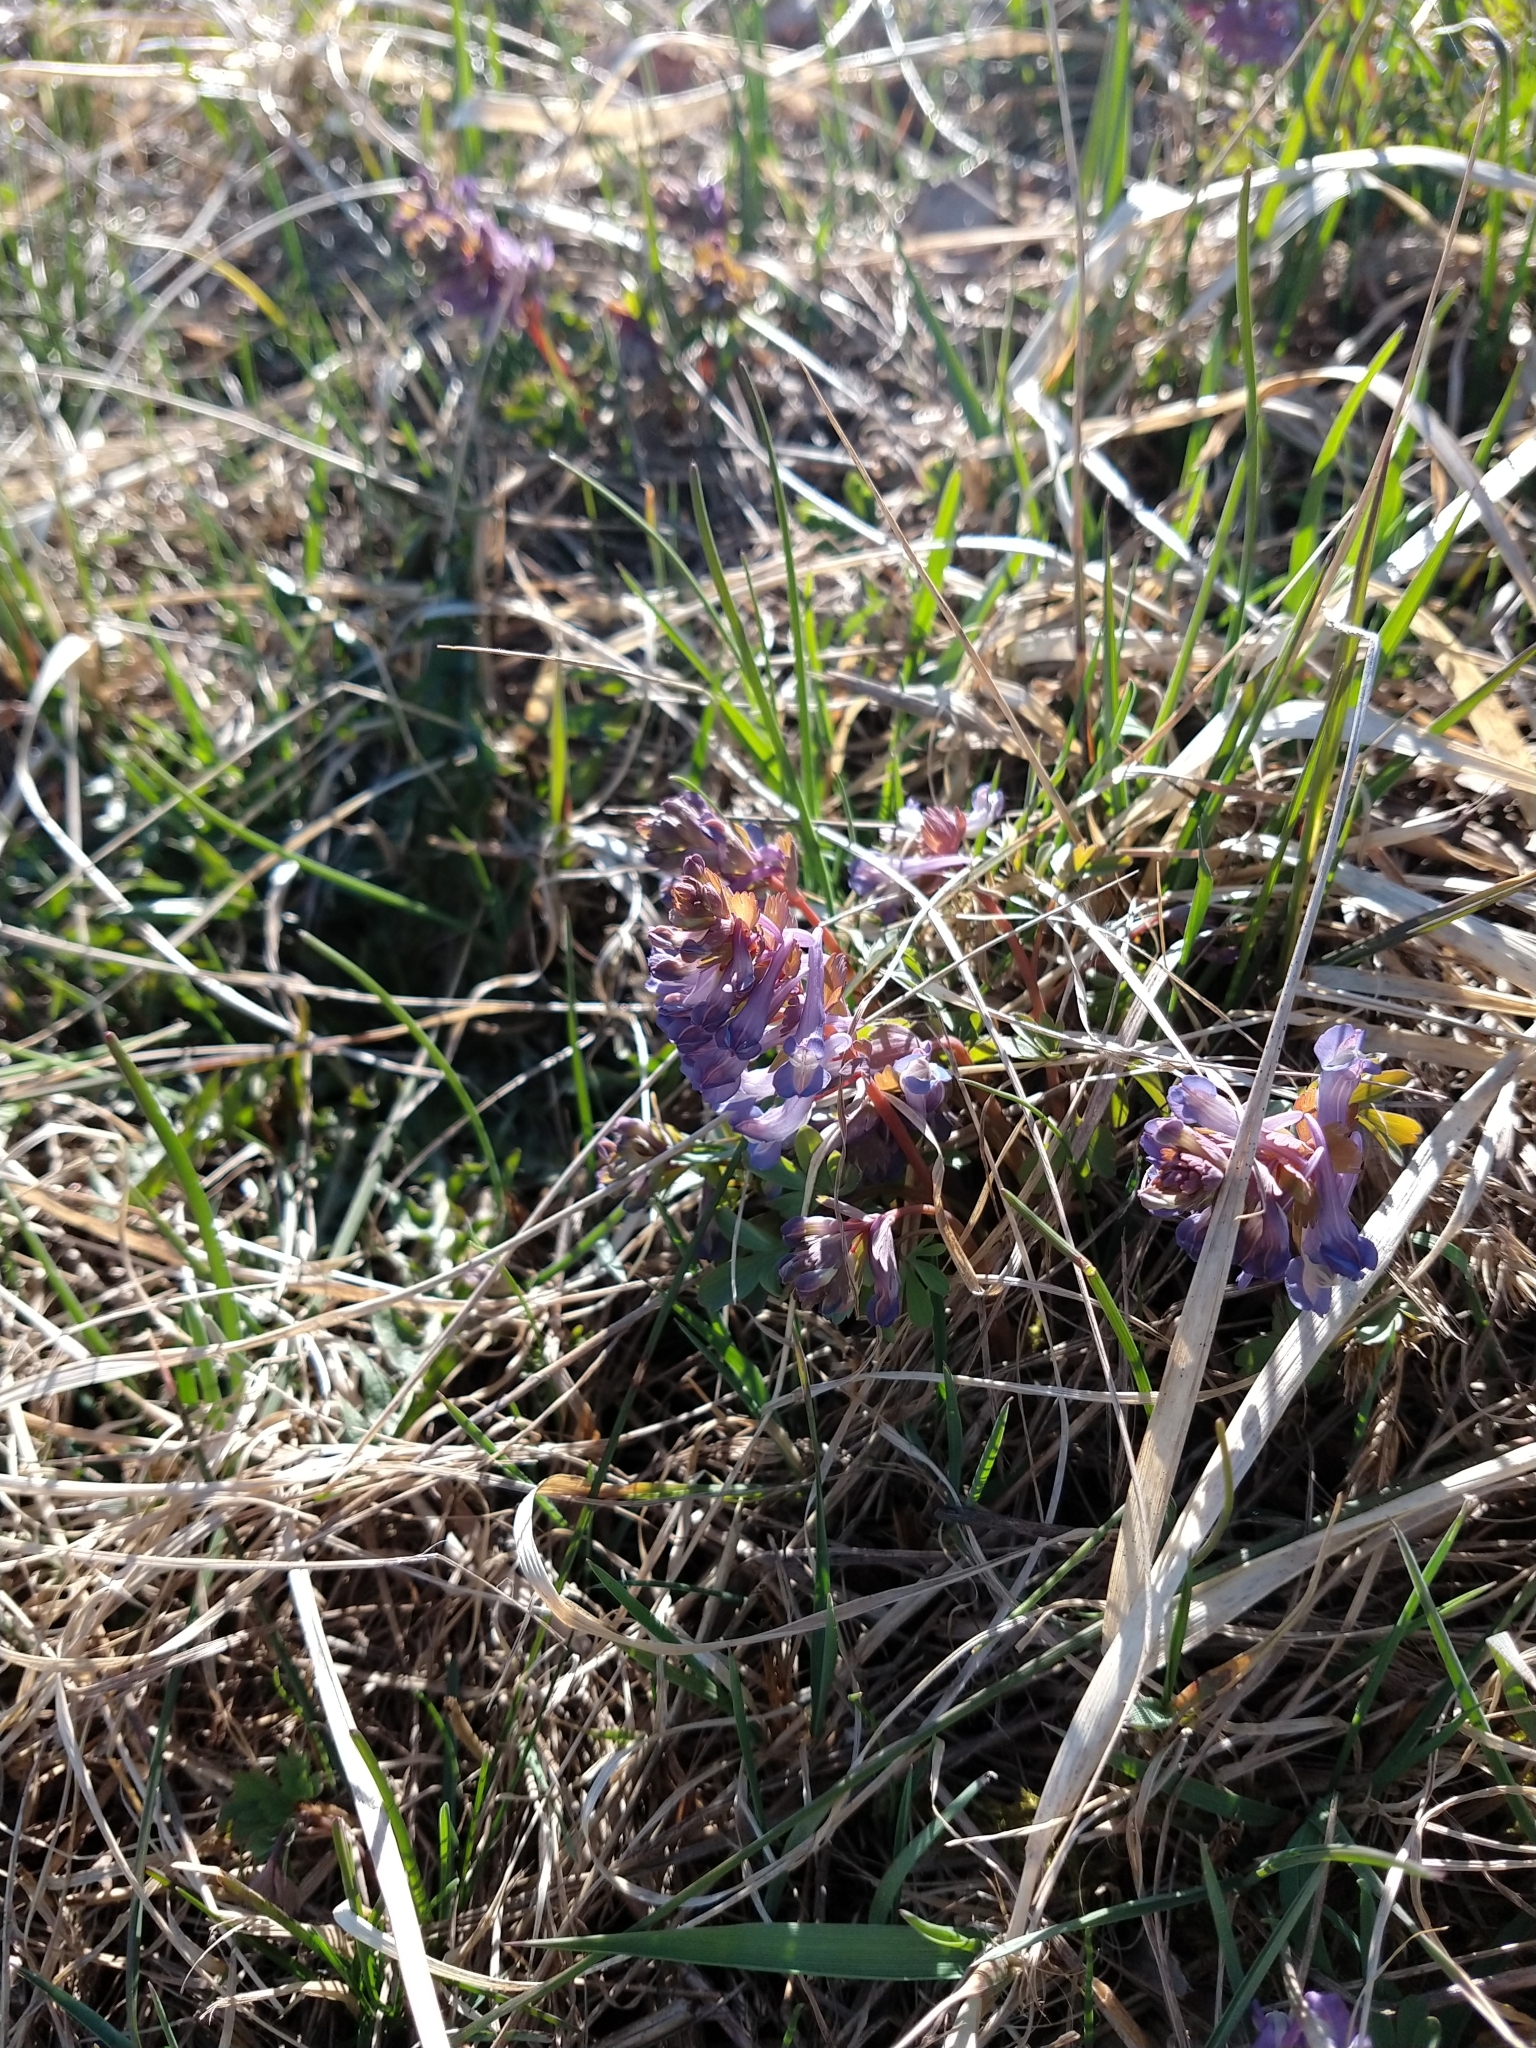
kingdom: Plantae
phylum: Tracheophyta
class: Magnoliopsida
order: Ranunculales
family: Papaveraceae
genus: Corydalis
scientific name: Corydalis solida
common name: Bird-in-a-bush
